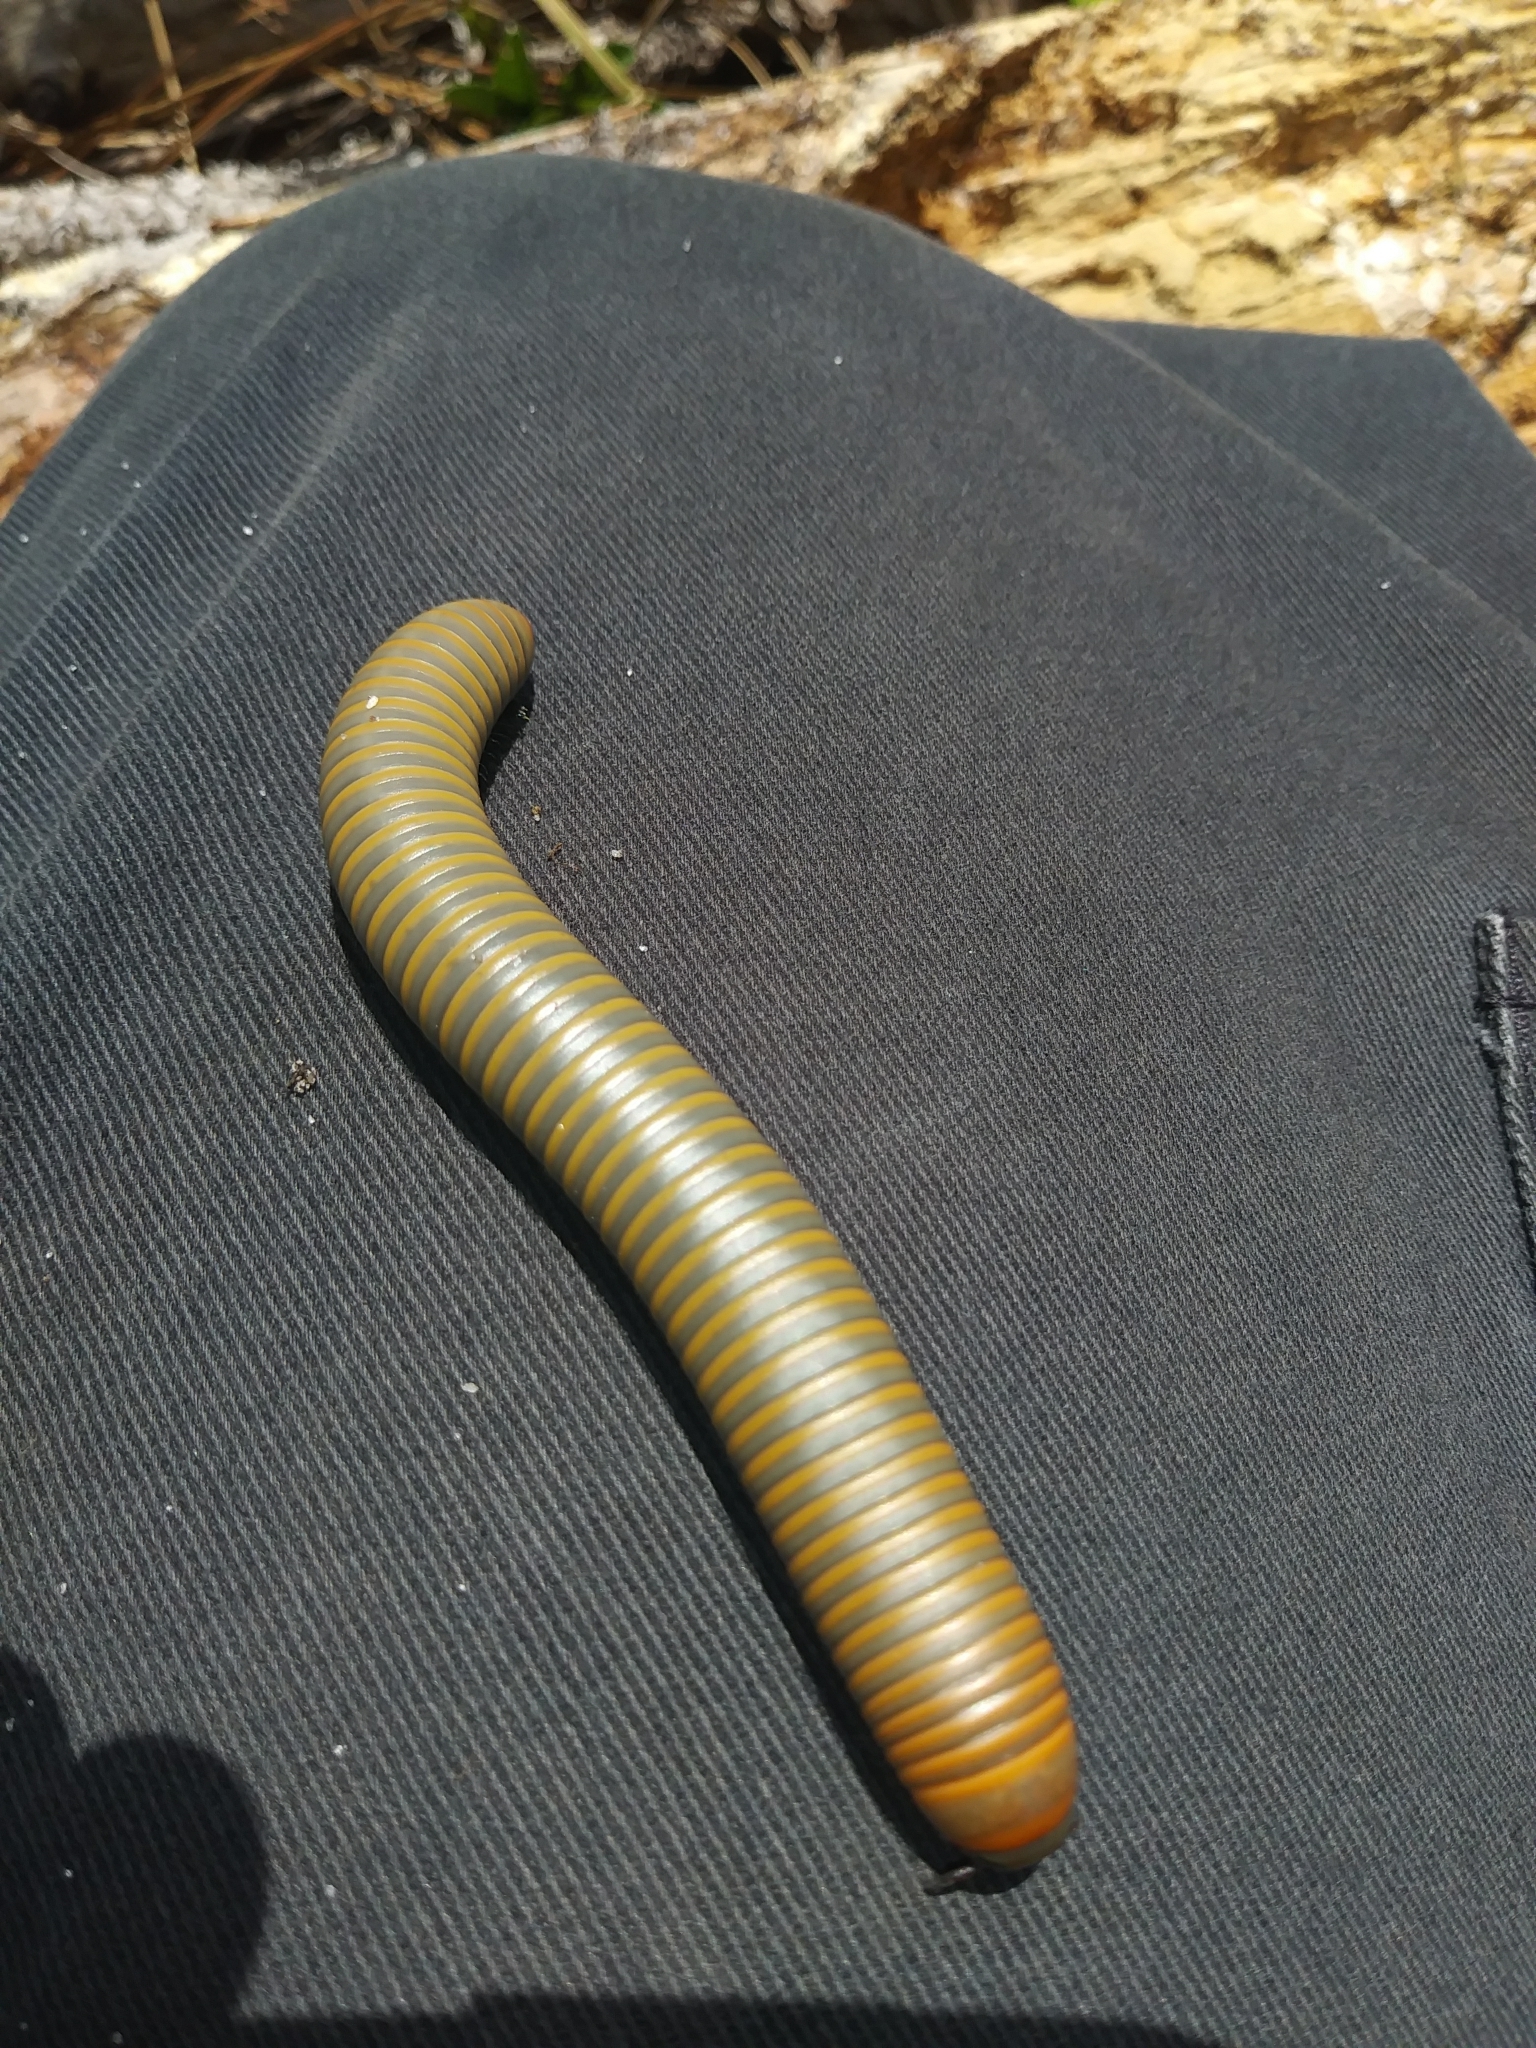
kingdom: Animalia
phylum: Arthropoda
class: Diplopoda
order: Spirobolida
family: Spirobolidae
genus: Narceus
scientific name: Narceus gordanus
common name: Grayish-green millipede
